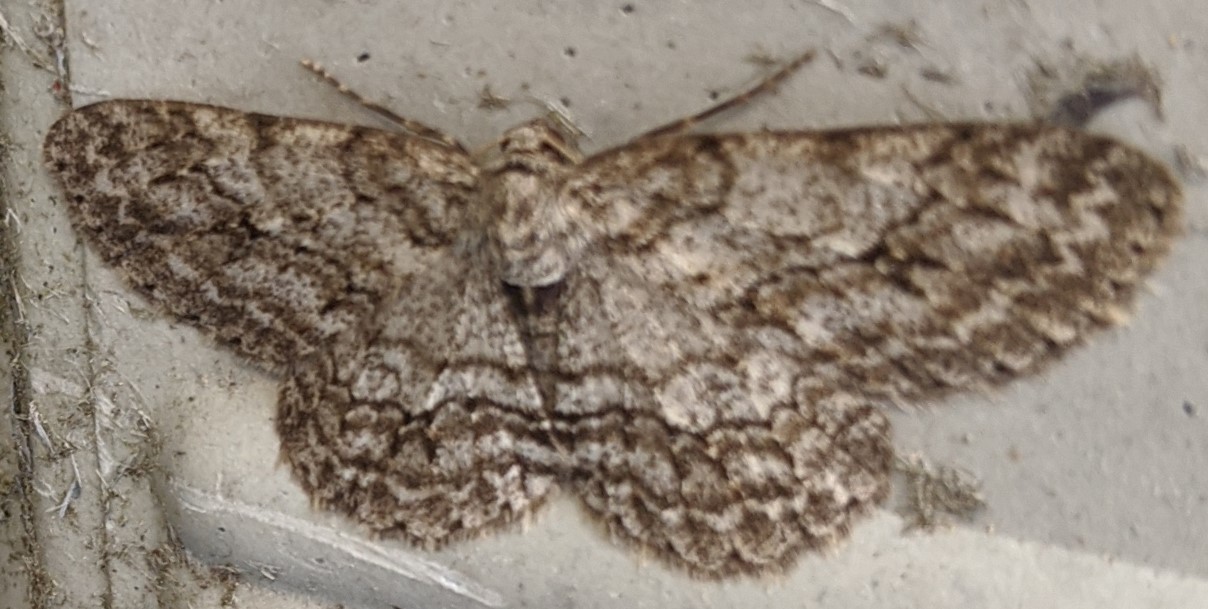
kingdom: Animalia
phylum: Arthropoda
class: Insecta
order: Lepidoptera
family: Geometridae
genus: Ectropis
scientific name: Ectropis crepuscularia
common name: Engrailed
